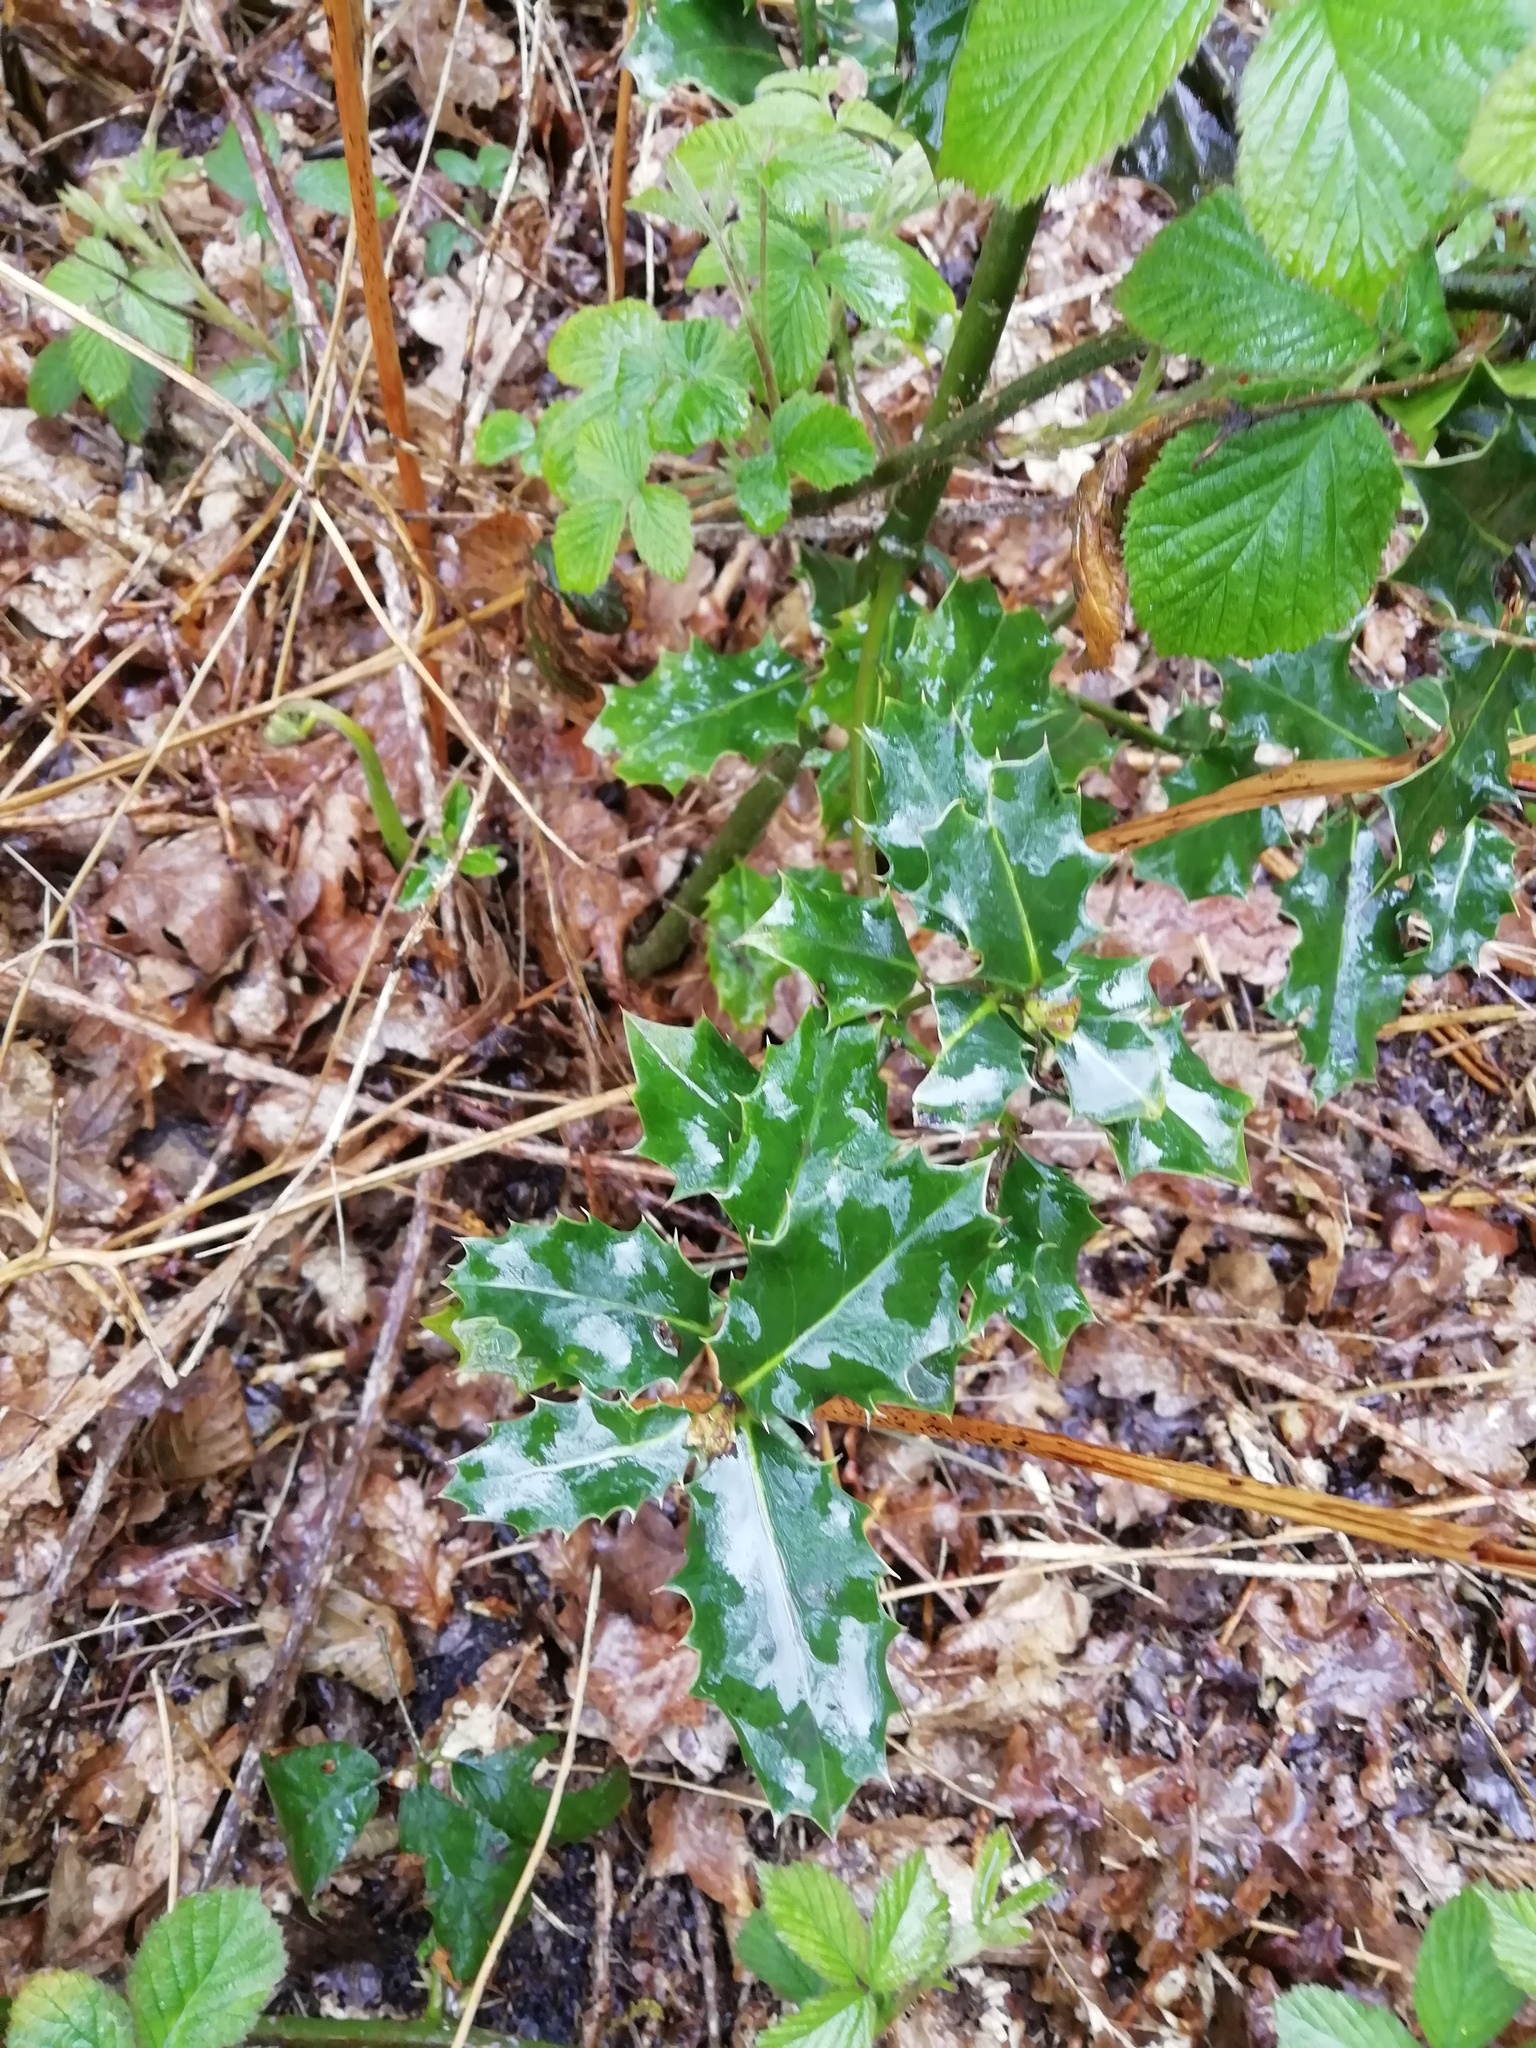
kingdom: Plantae
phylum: Tracheophyta
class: Magnoliopsida
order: Aquifoliales
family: Aquifoliaceae
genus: Ilex
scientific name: Ilex aquifolium
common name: English holly
